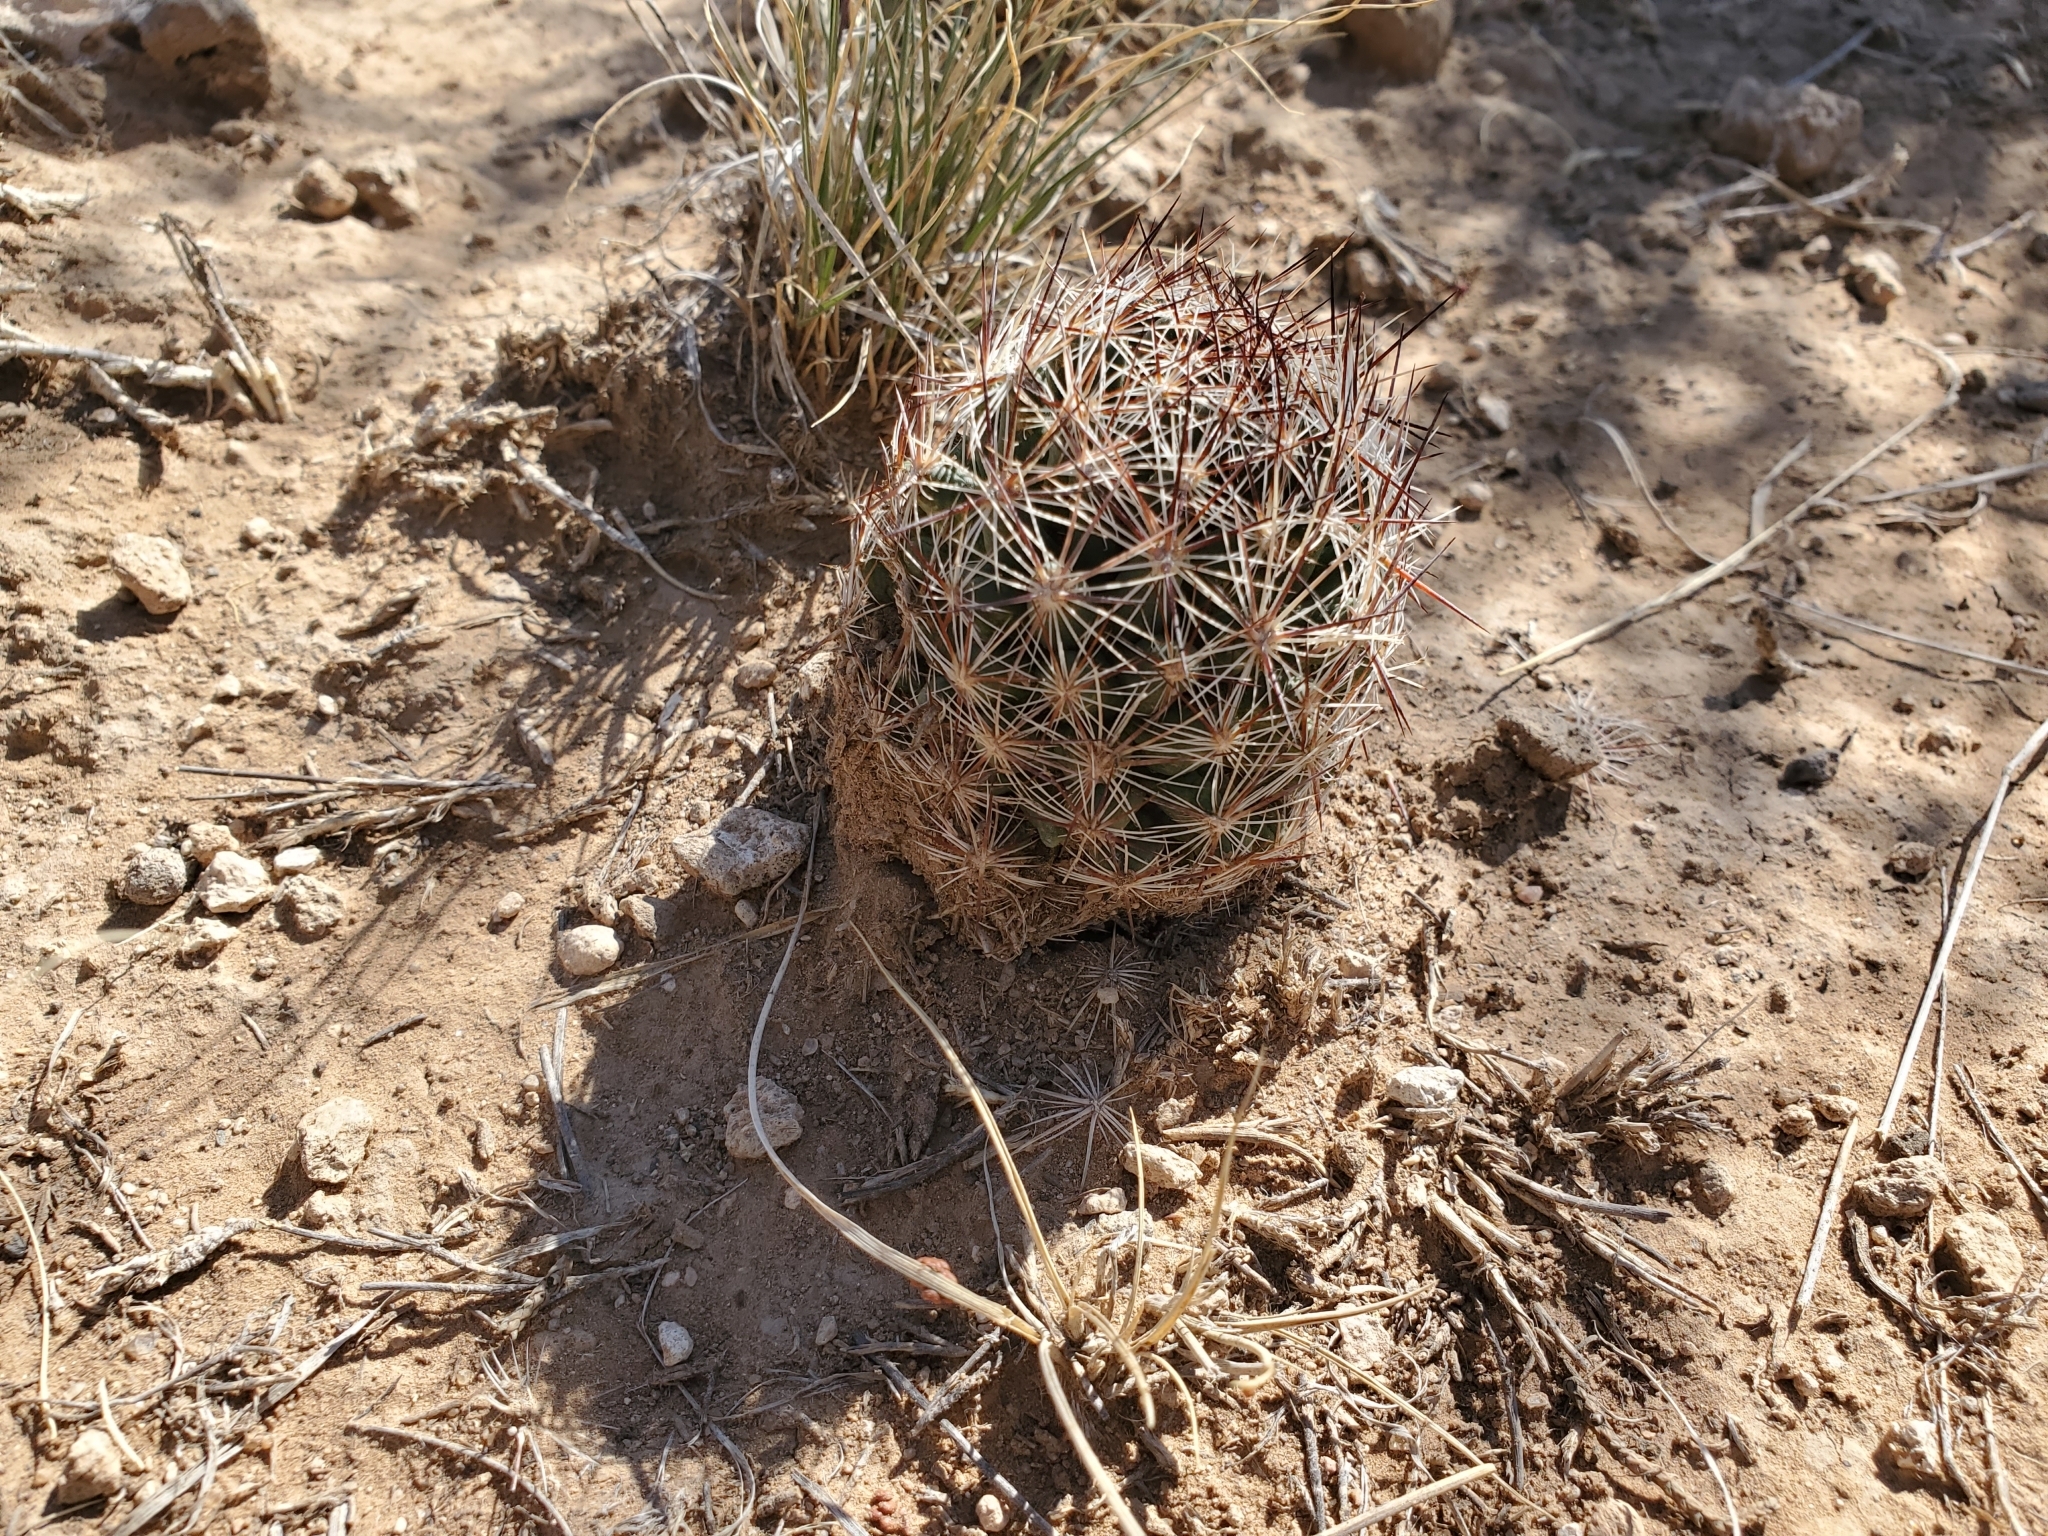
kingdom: Plantae
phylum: Tracheophyta
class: Magnoliopsida
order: Caryophyllales
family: Cactaceae
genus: Pelecyphora
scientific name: Pelecyphora vivipara
